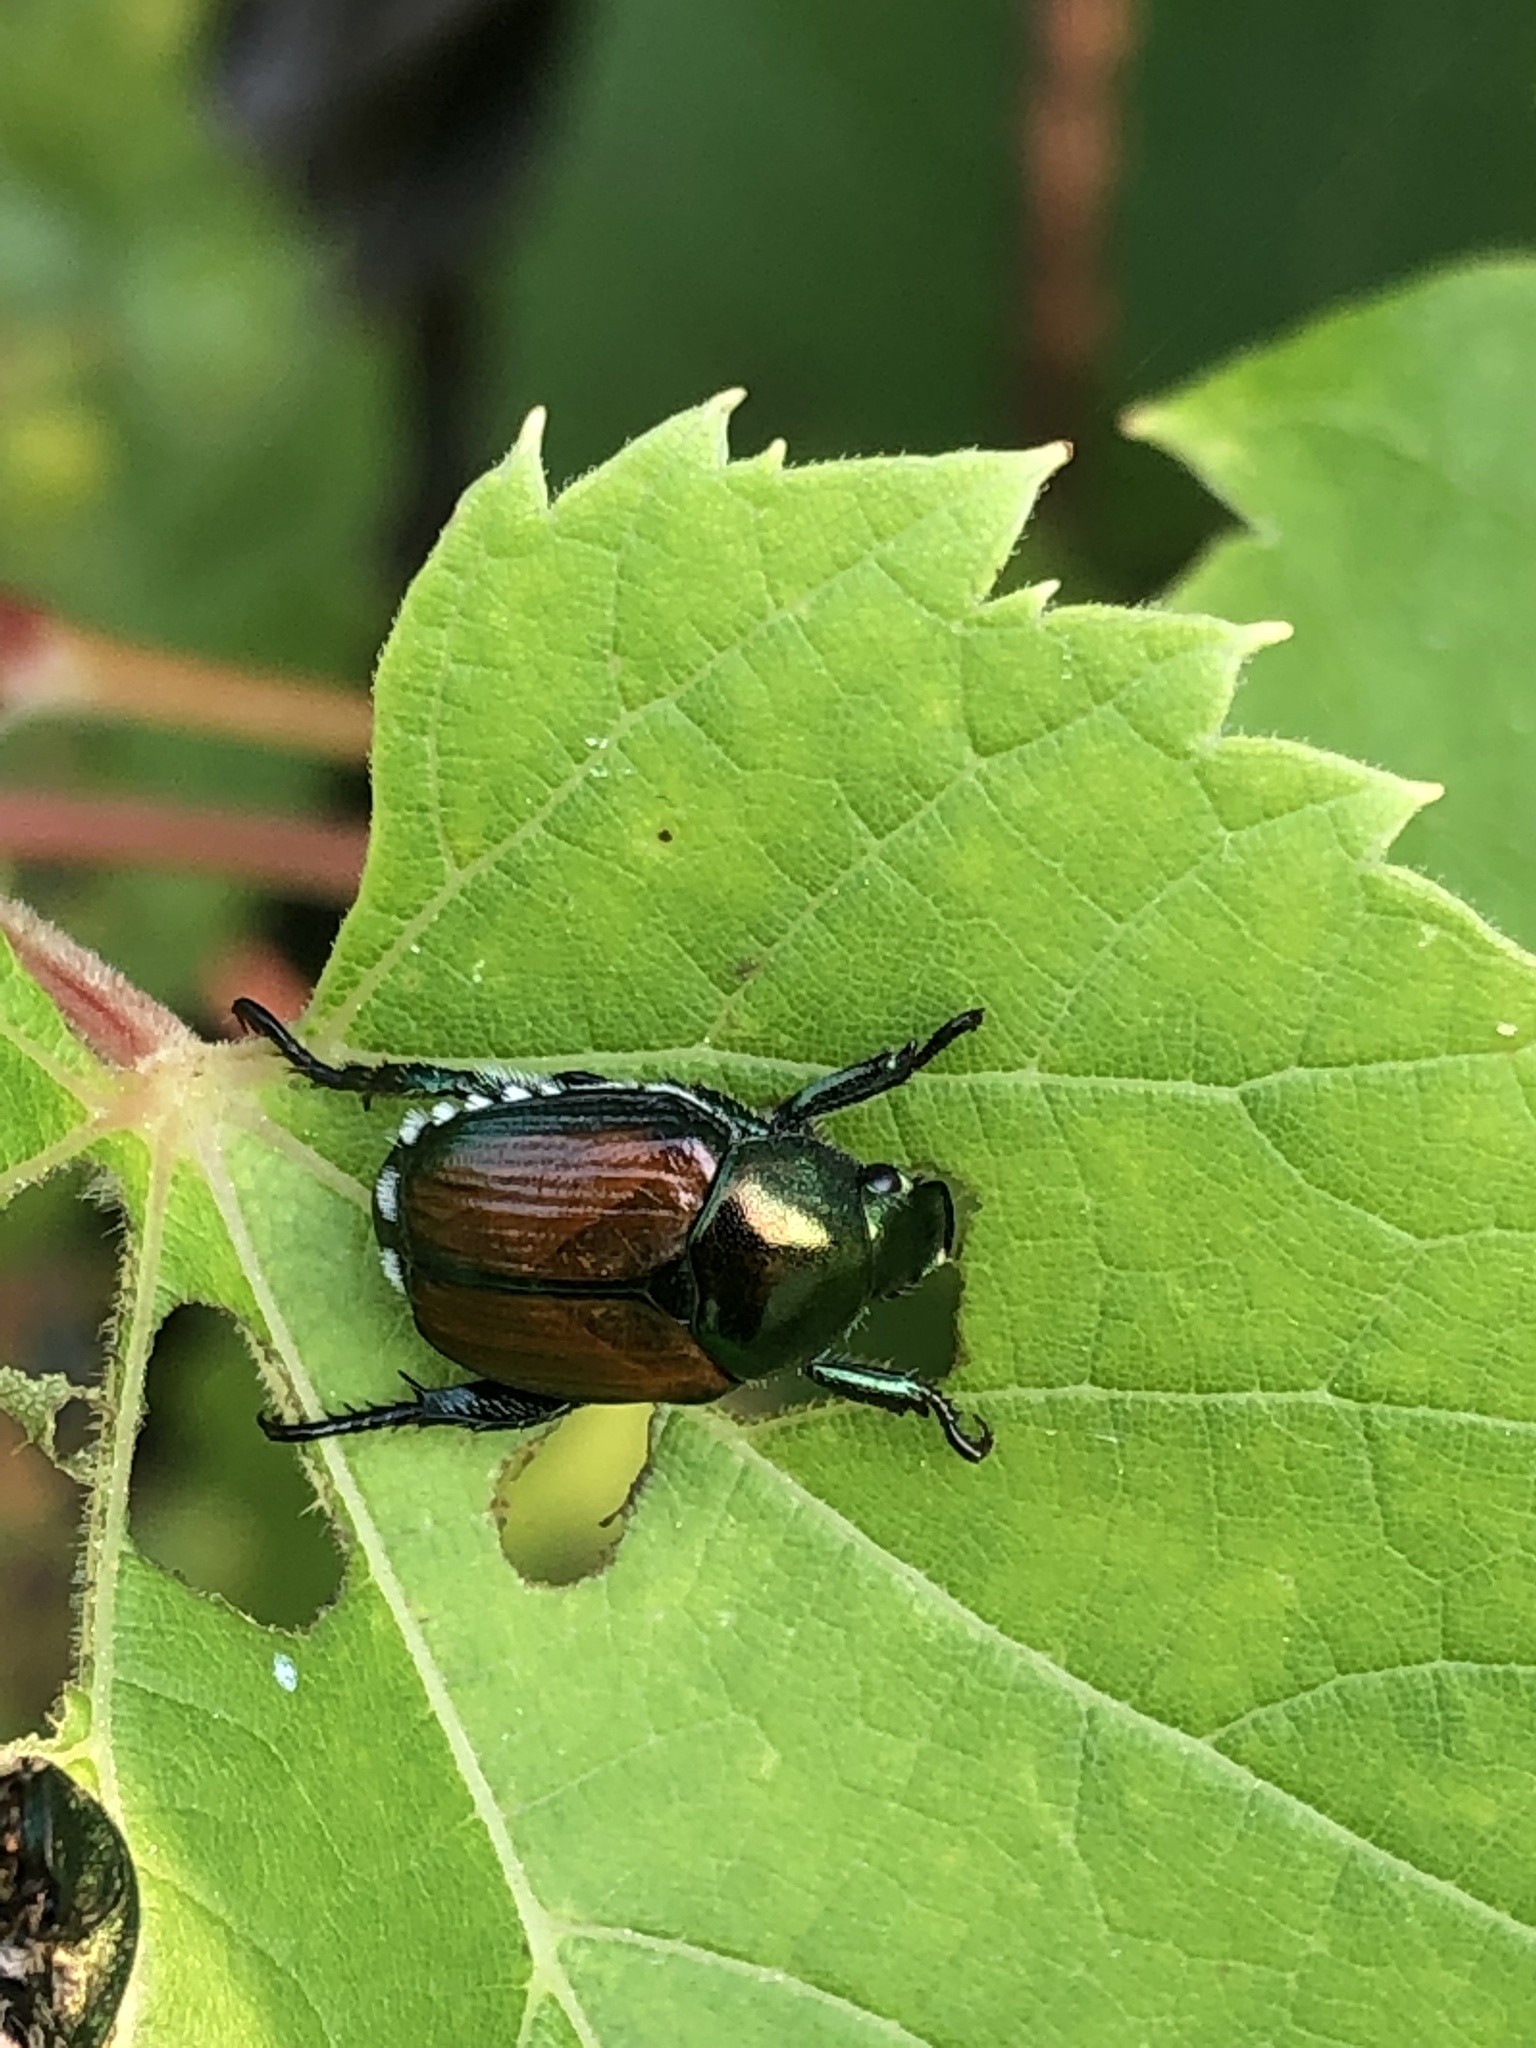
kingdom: Animalia
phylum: Arthropoda
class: Insecta
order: Coleoptera
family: Scarabaeidae
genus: Popillia
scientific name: Popillia japonica
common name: Japanese beetle
